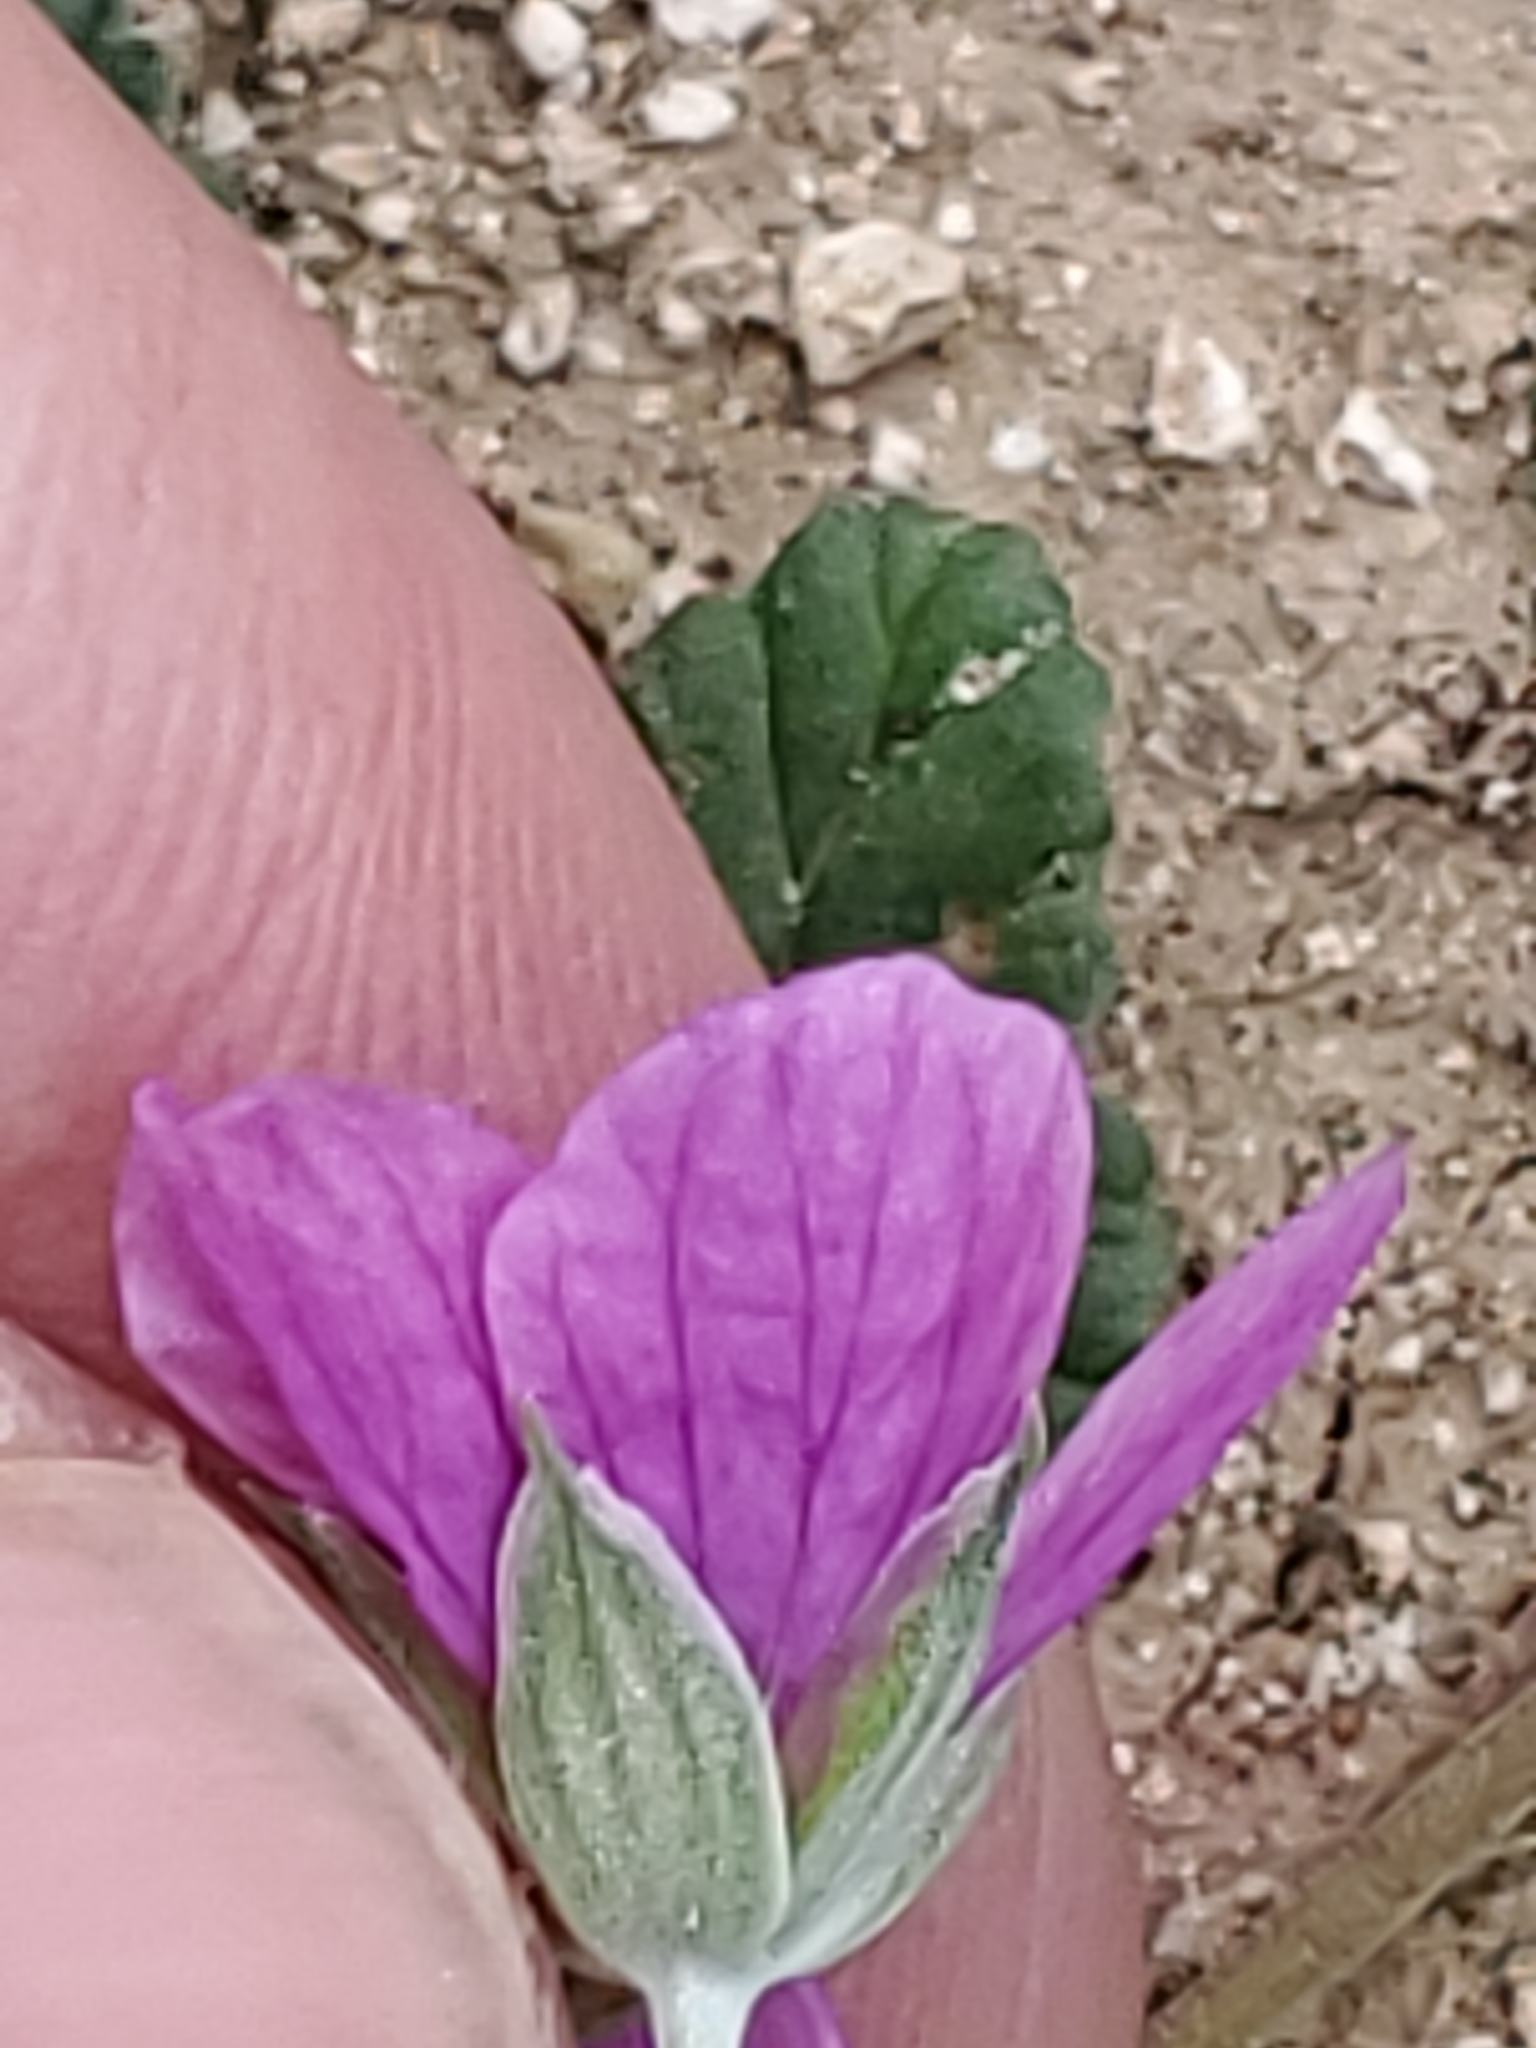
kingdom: Plantae
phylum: Tracheophyta
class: Magnoliopsida
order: Geraniales
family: Geraniaceae
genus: Erodium
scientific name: Erodium texanum
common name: Texas stork's-bill
